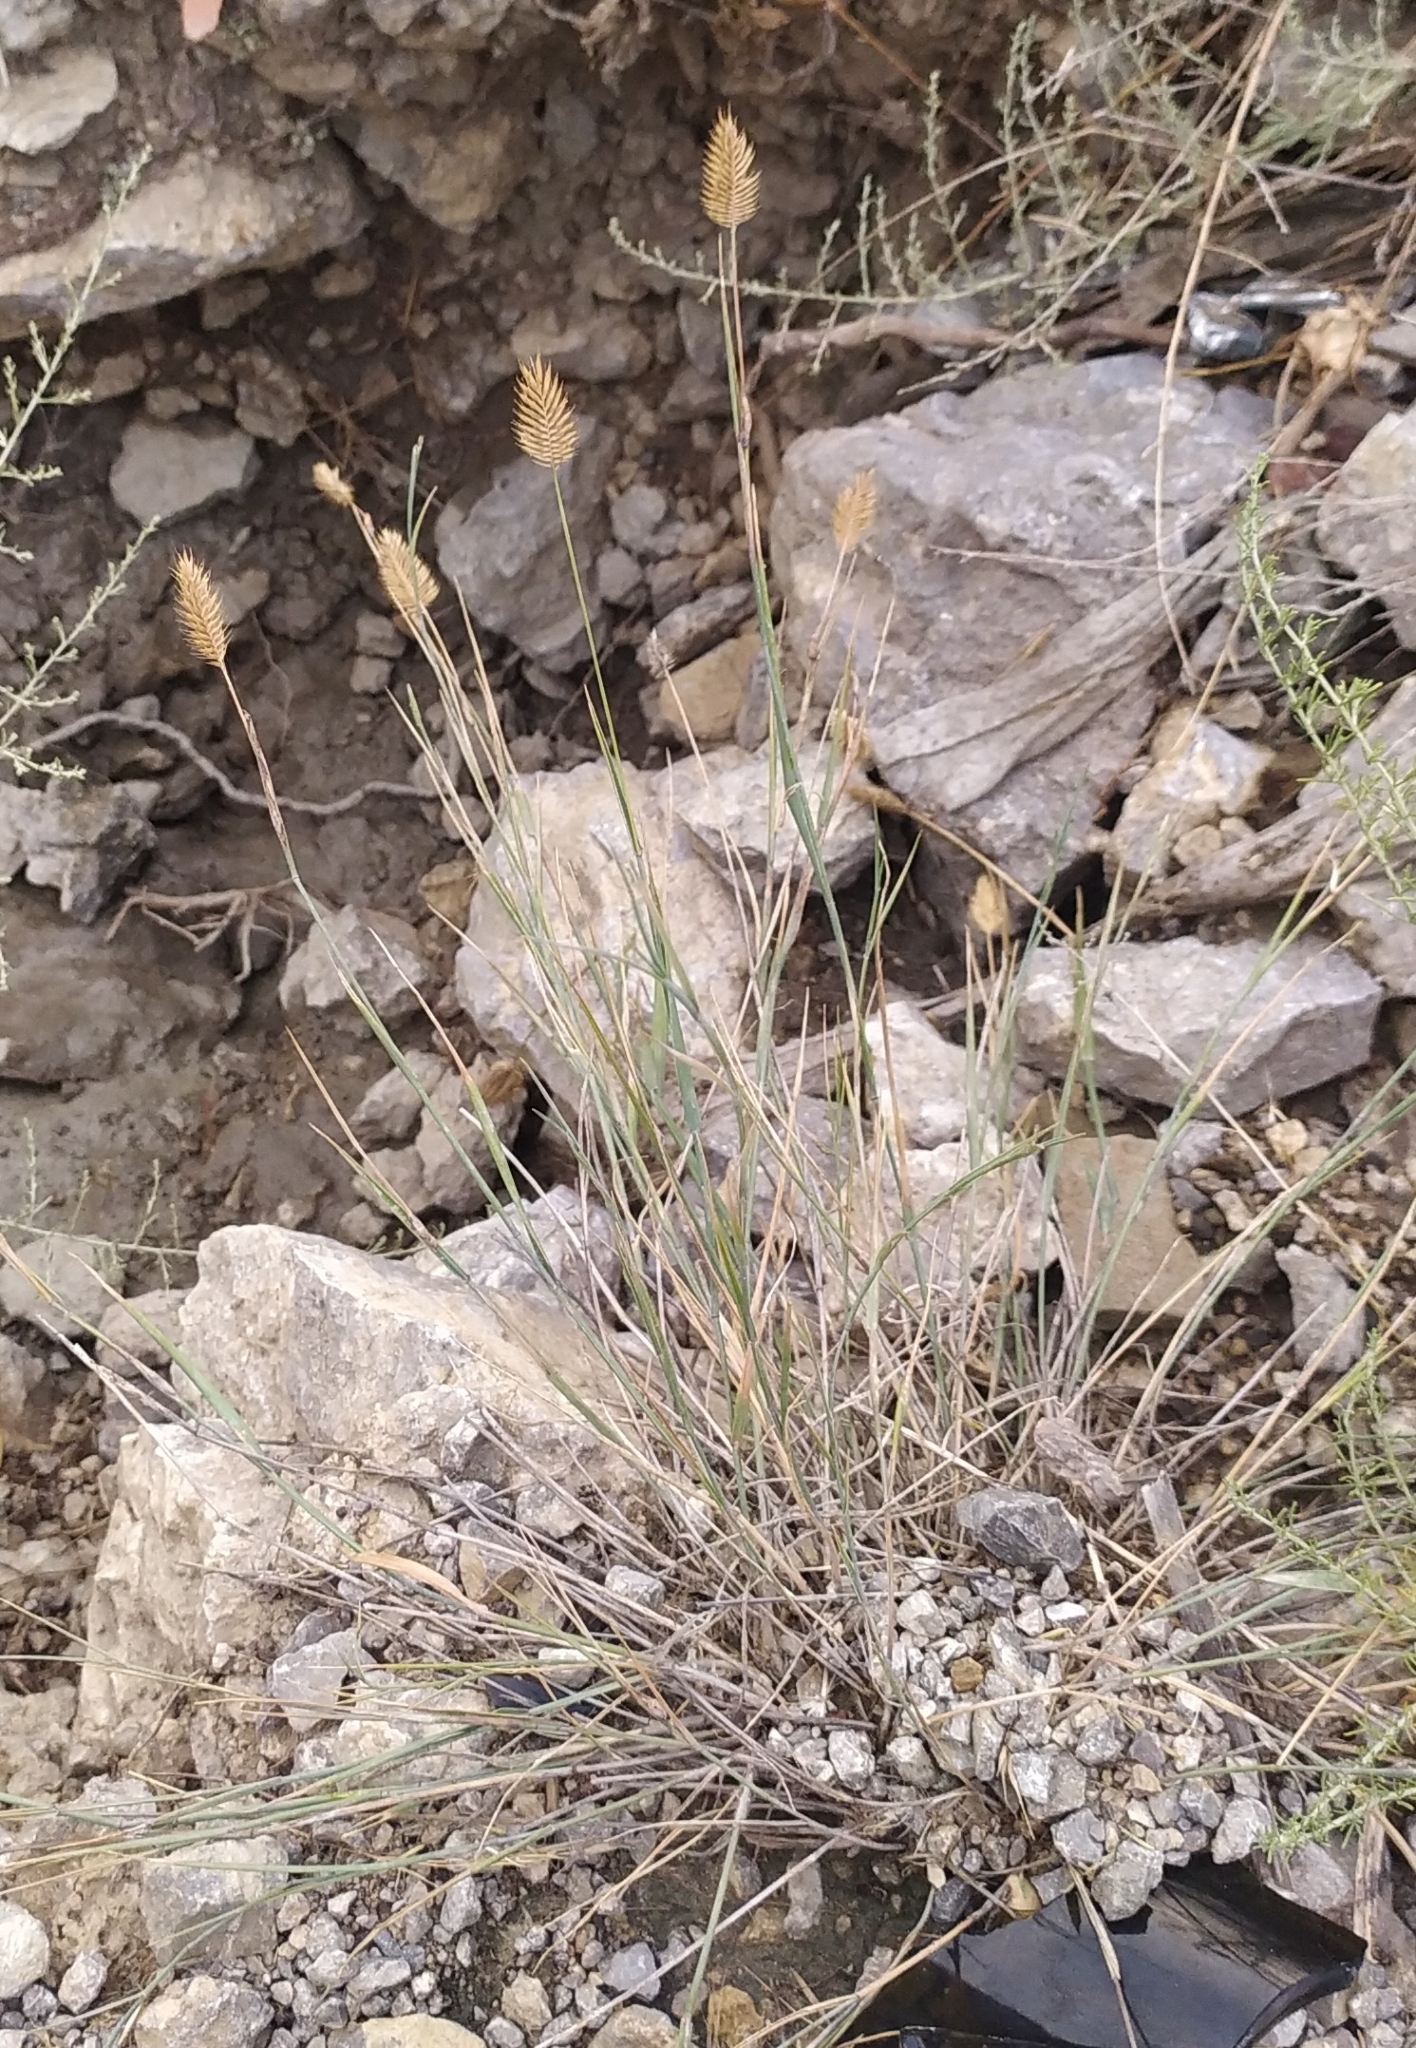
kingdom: Plantae
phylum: Tracheophyta
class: Liliopsida
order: Poales
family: Poaceae
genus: Agropyron
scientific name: Agropyron cristatum
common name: Crested wheatgrass
